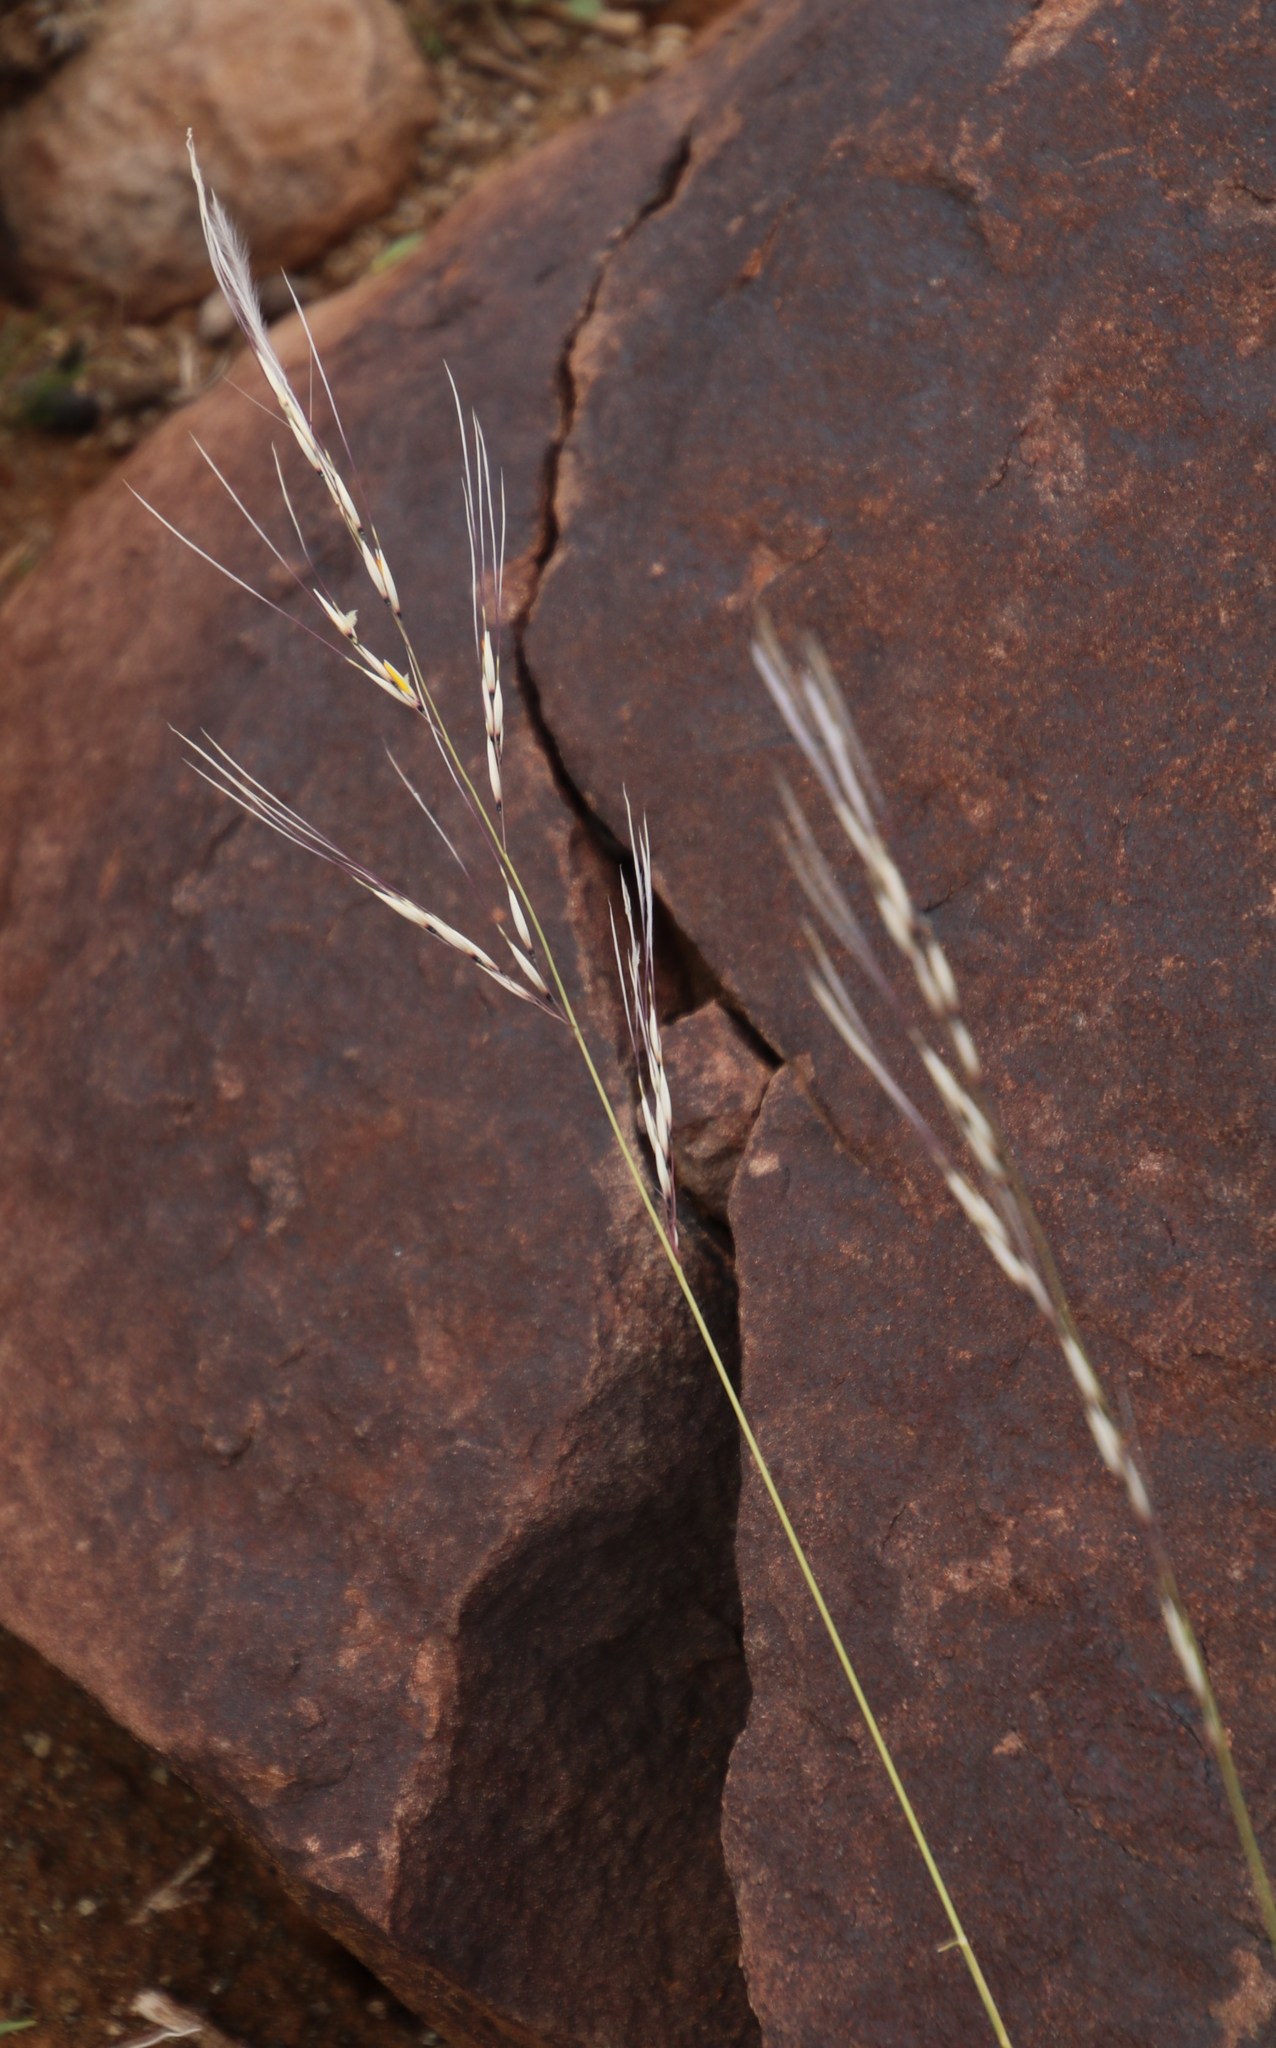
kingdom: Plantae
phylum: Tracheophyta
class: Liliopsida
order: Poales
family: Poaceae
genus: Stipagrostis
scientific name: Stipagrostis ciliata
